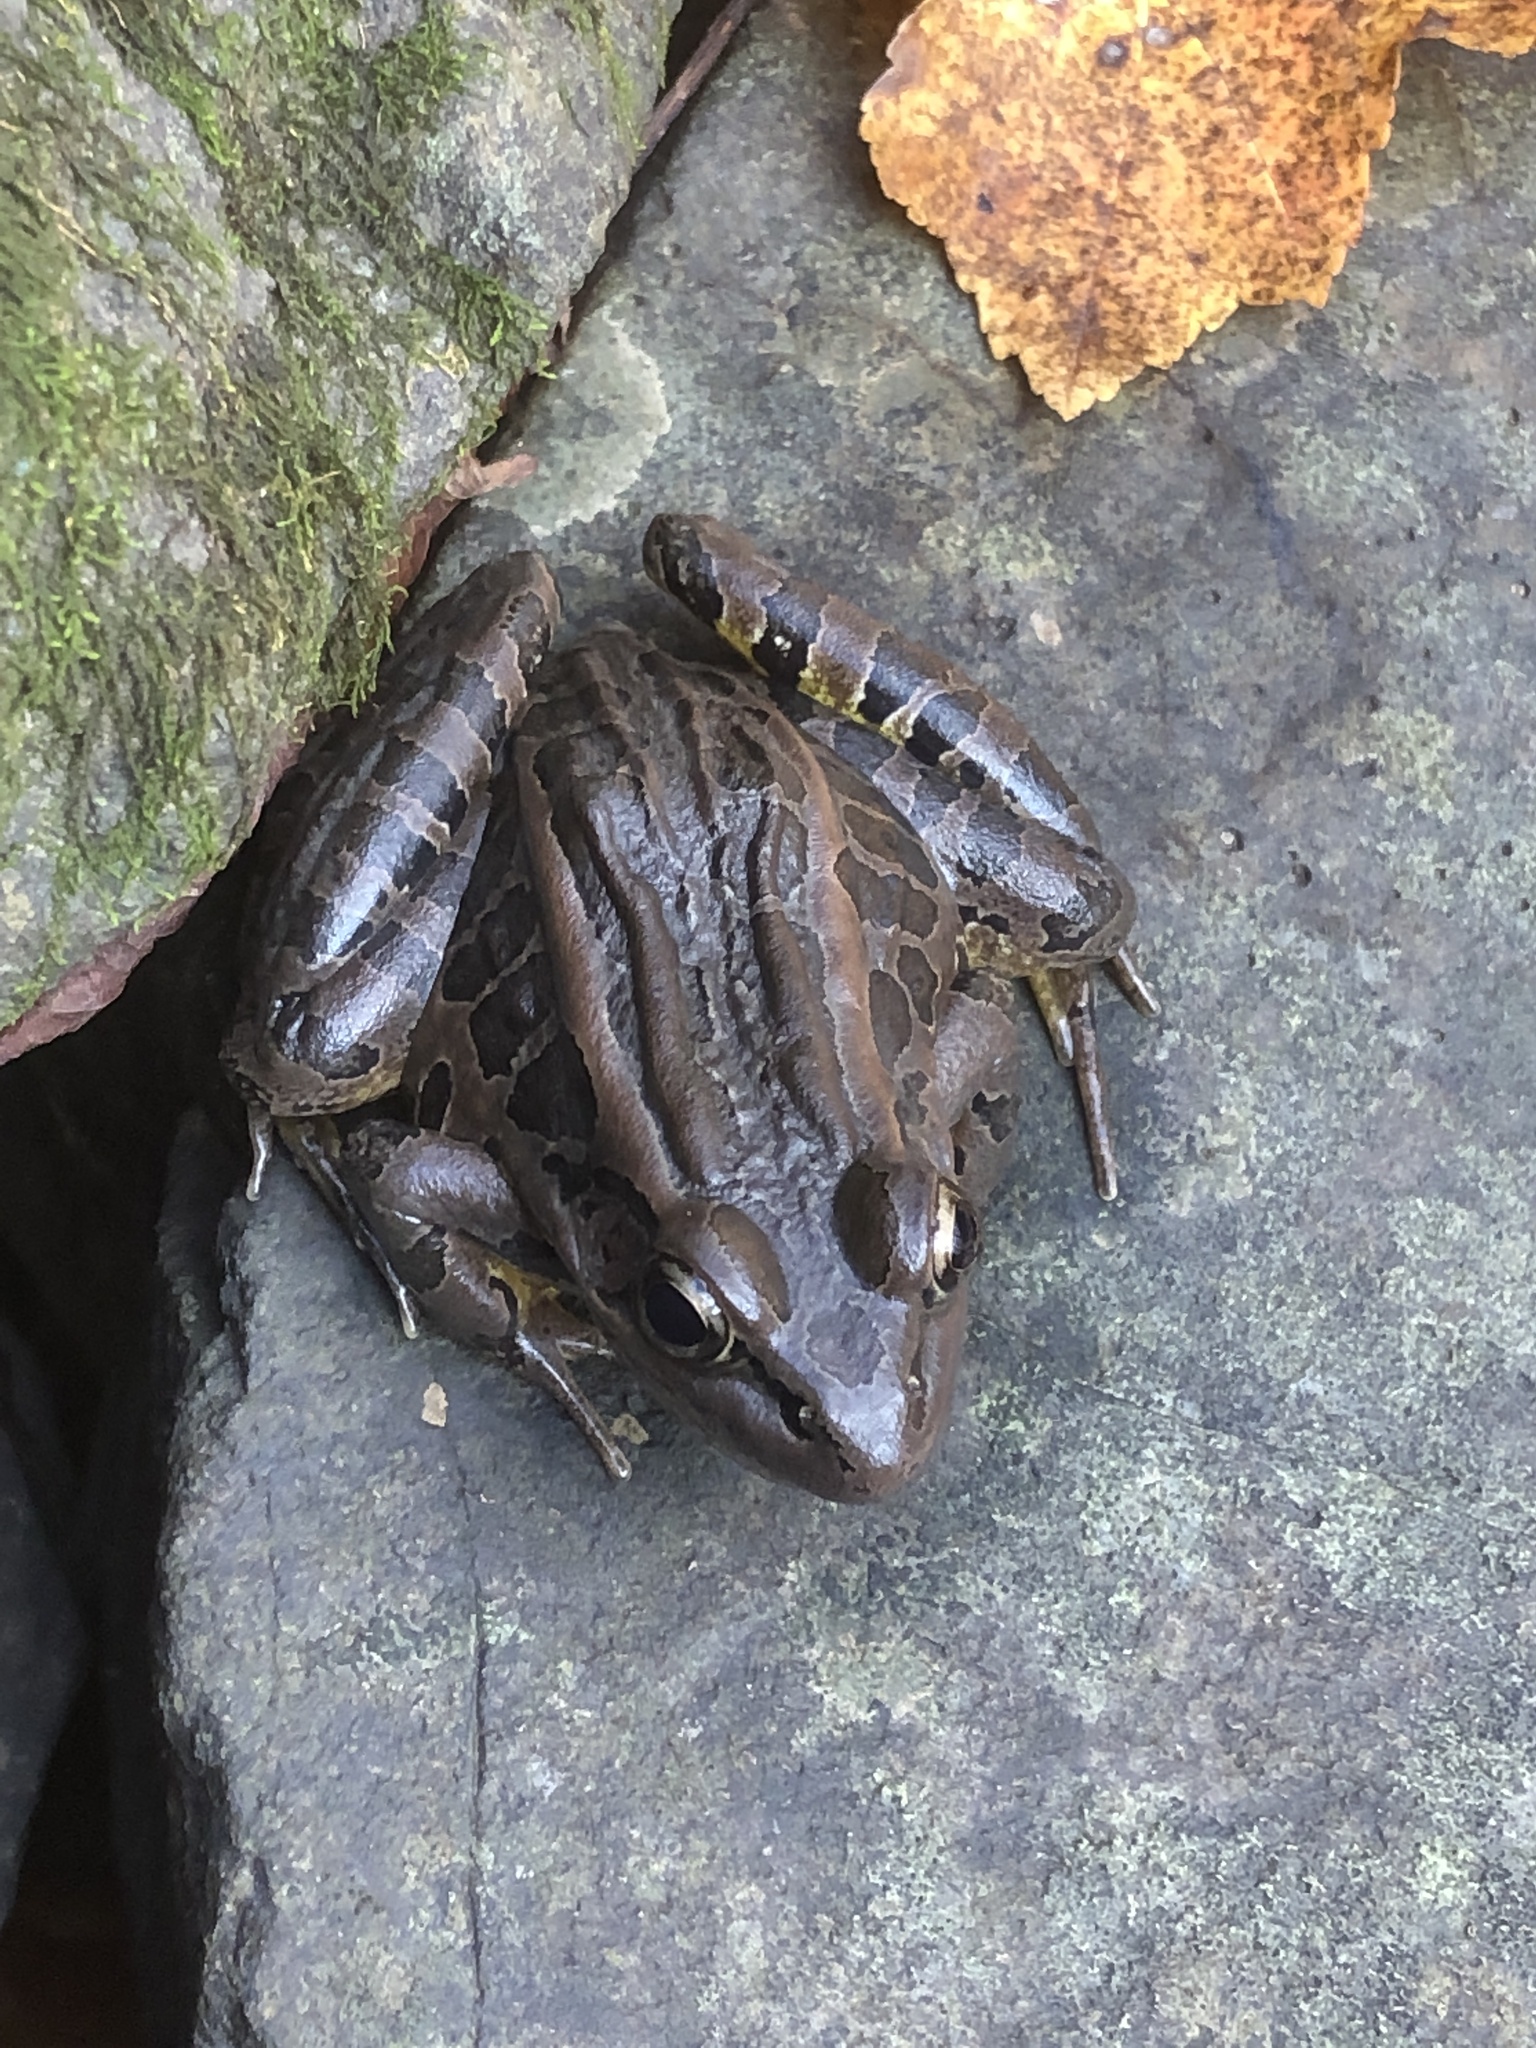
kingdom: Animalia
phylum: Chordata
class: Amphibia
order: Anura
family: Ranidae
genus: Lithobates
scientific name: Lithobates palustris
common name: Pickerel frog
